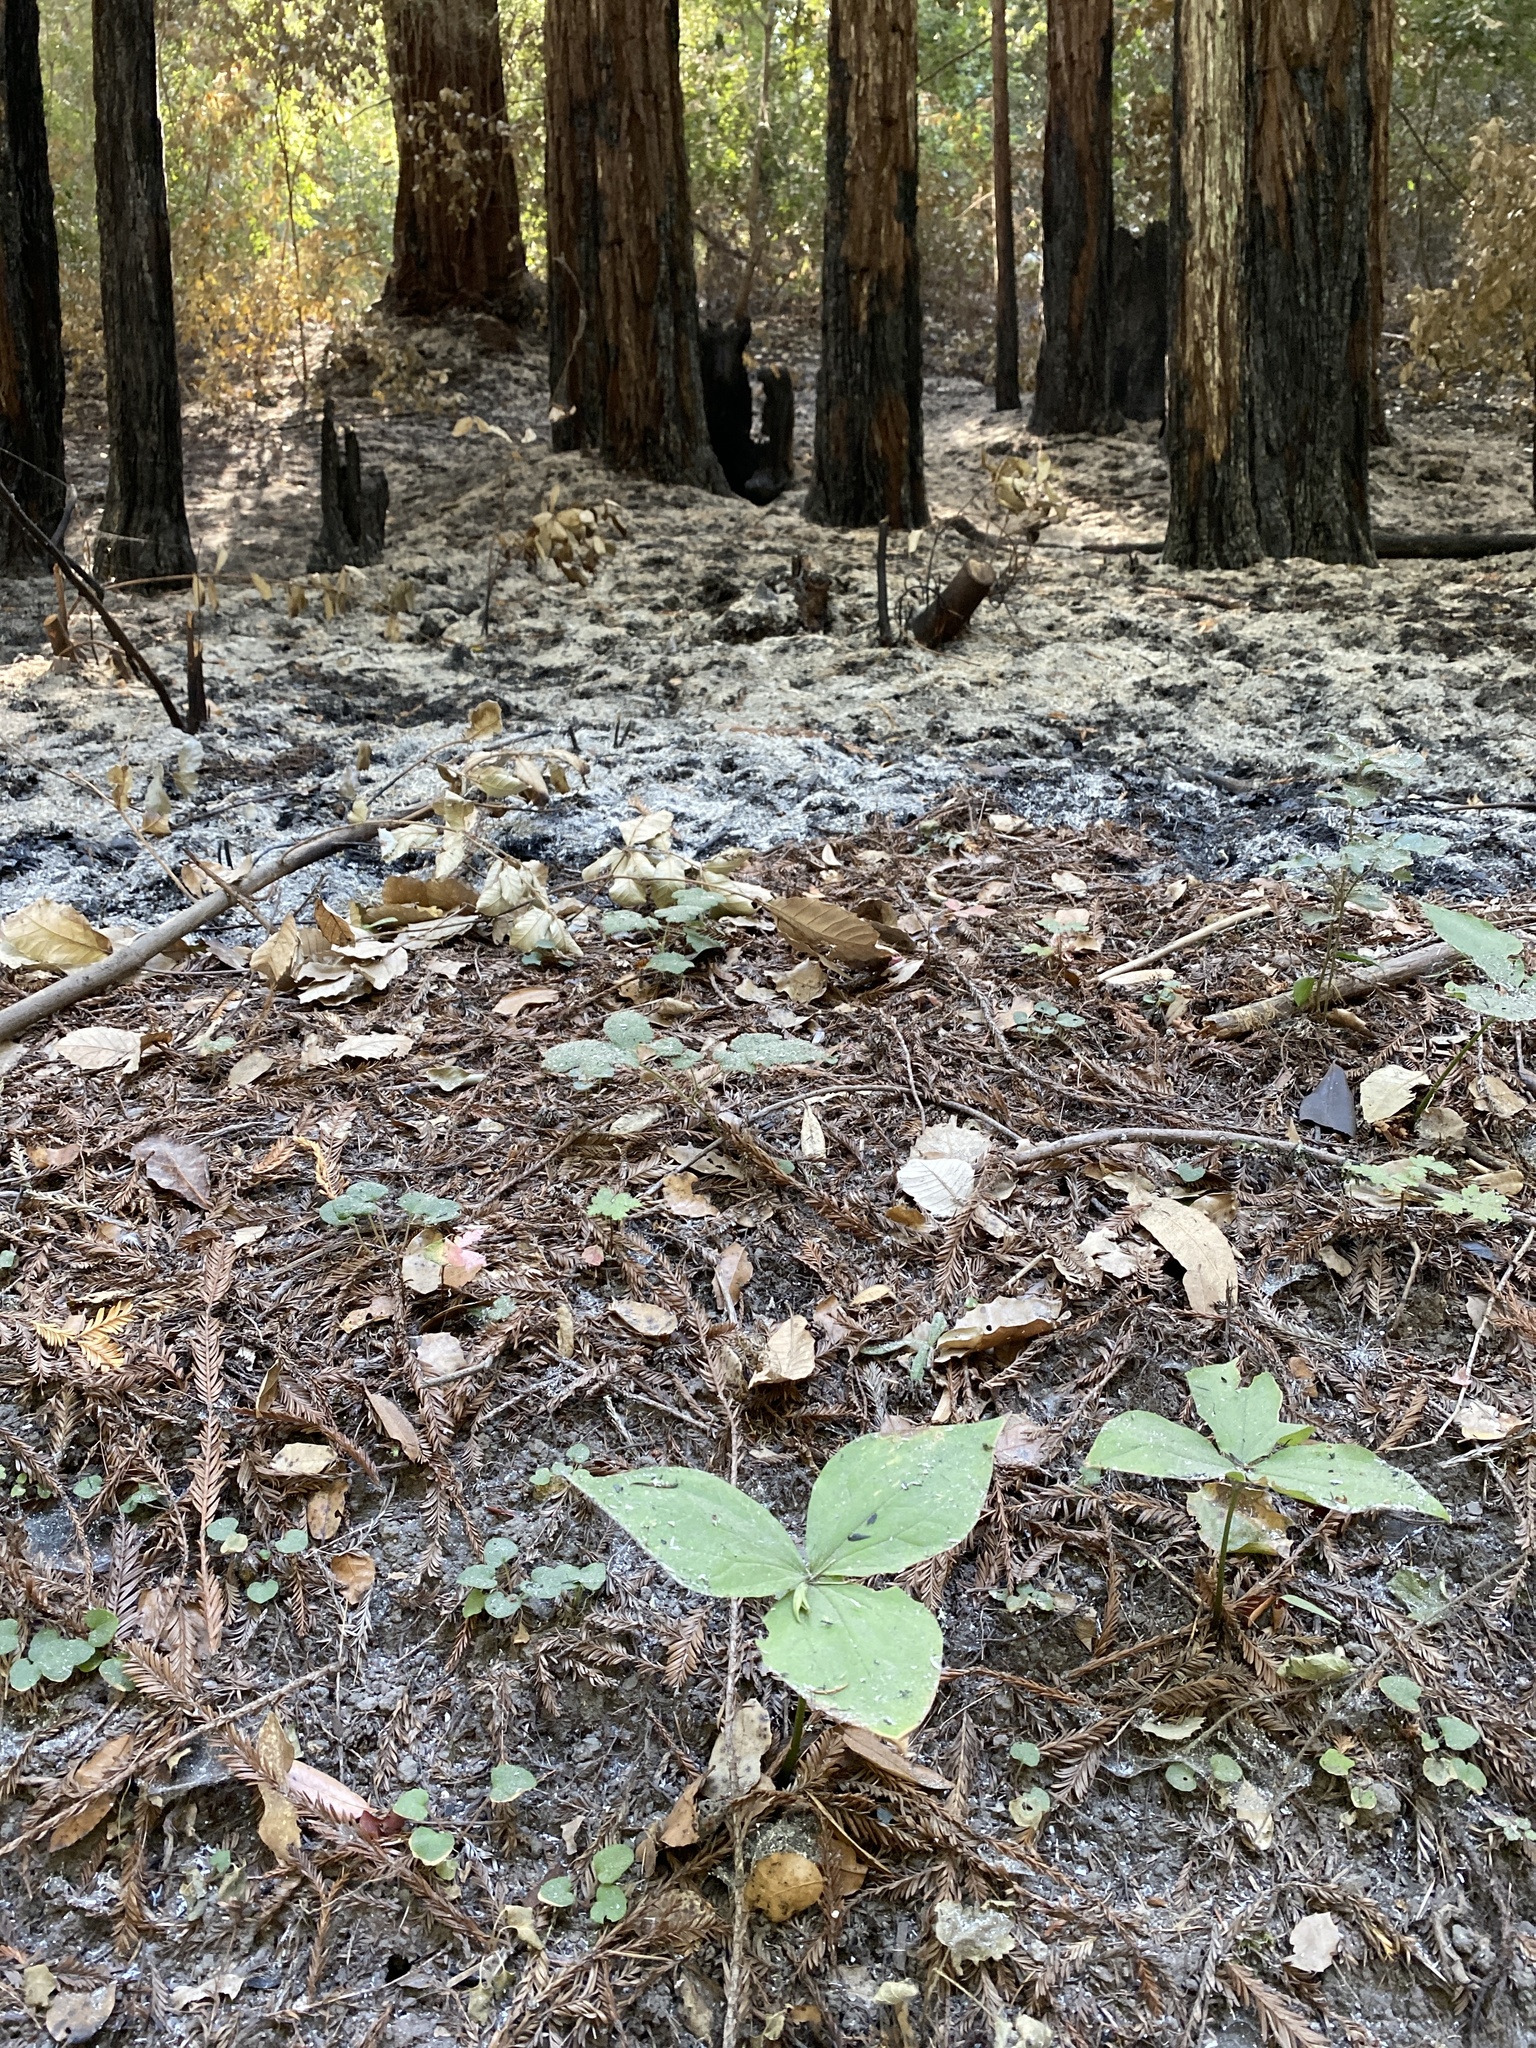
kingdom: Plantae
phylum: Tracheophyta
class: Liliopsida
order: Liliales
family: Melanthiaceae
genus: Trillium
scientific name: Trillium ovatum
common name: Pacific trillium
